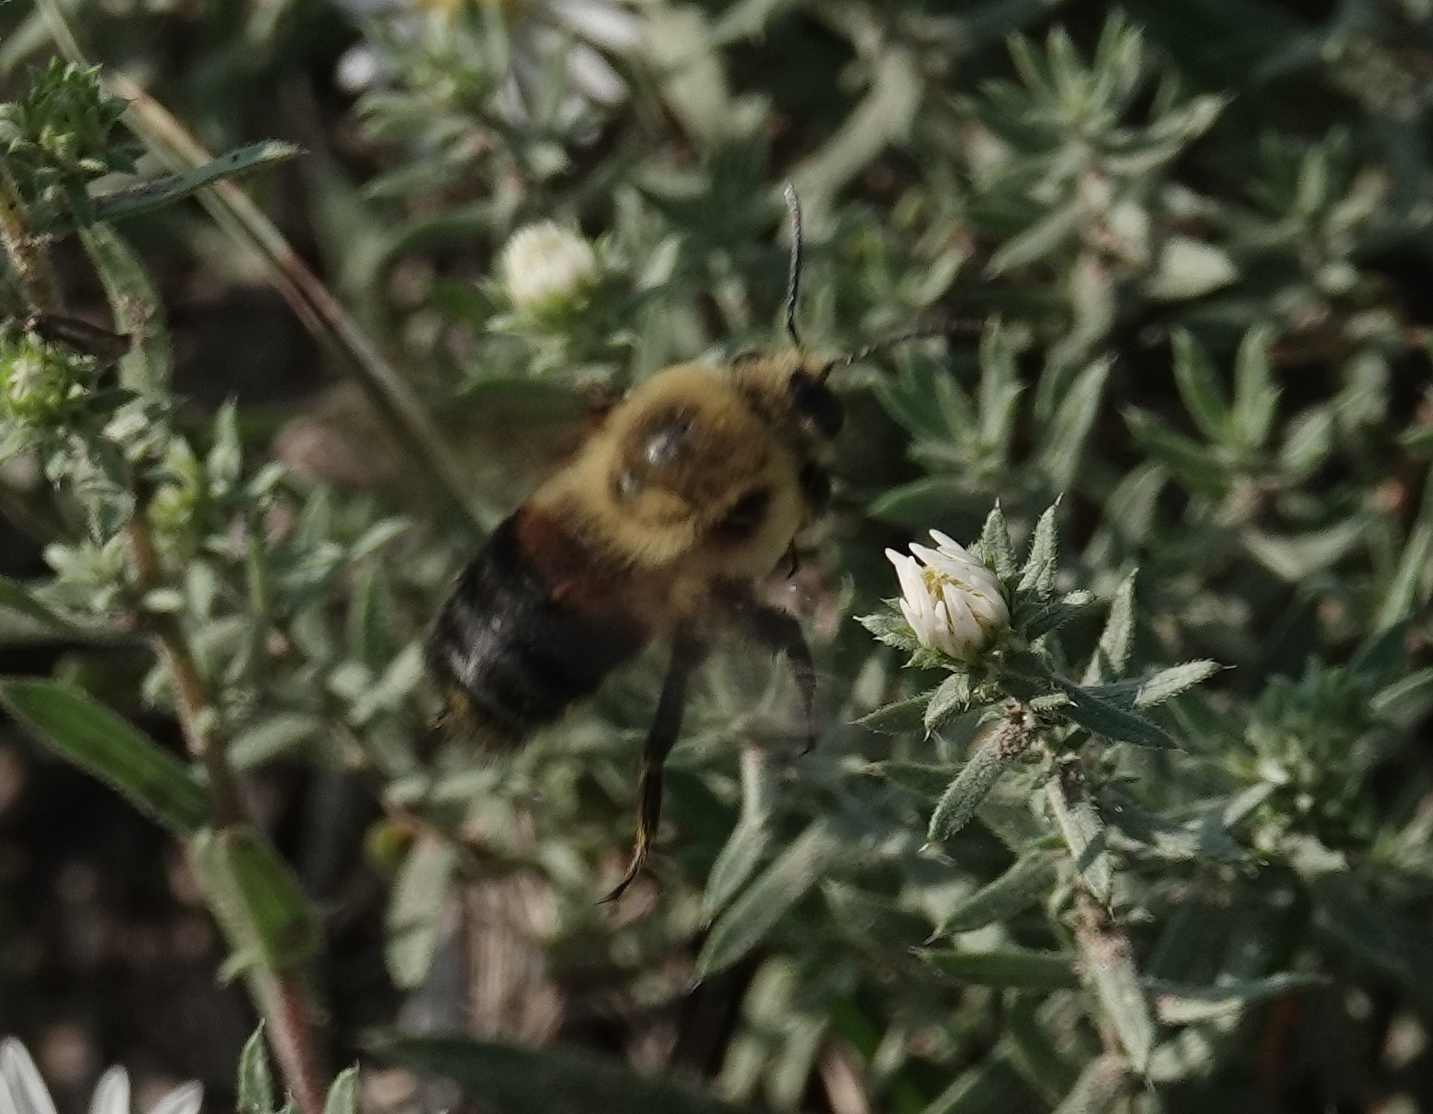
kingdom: Animalia
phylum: Arthropoda
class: Insecta
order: Hymenoptera
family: Apidae
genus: Bombus
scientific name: Bombus griseocollis
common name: Brown-belted bumble bee
